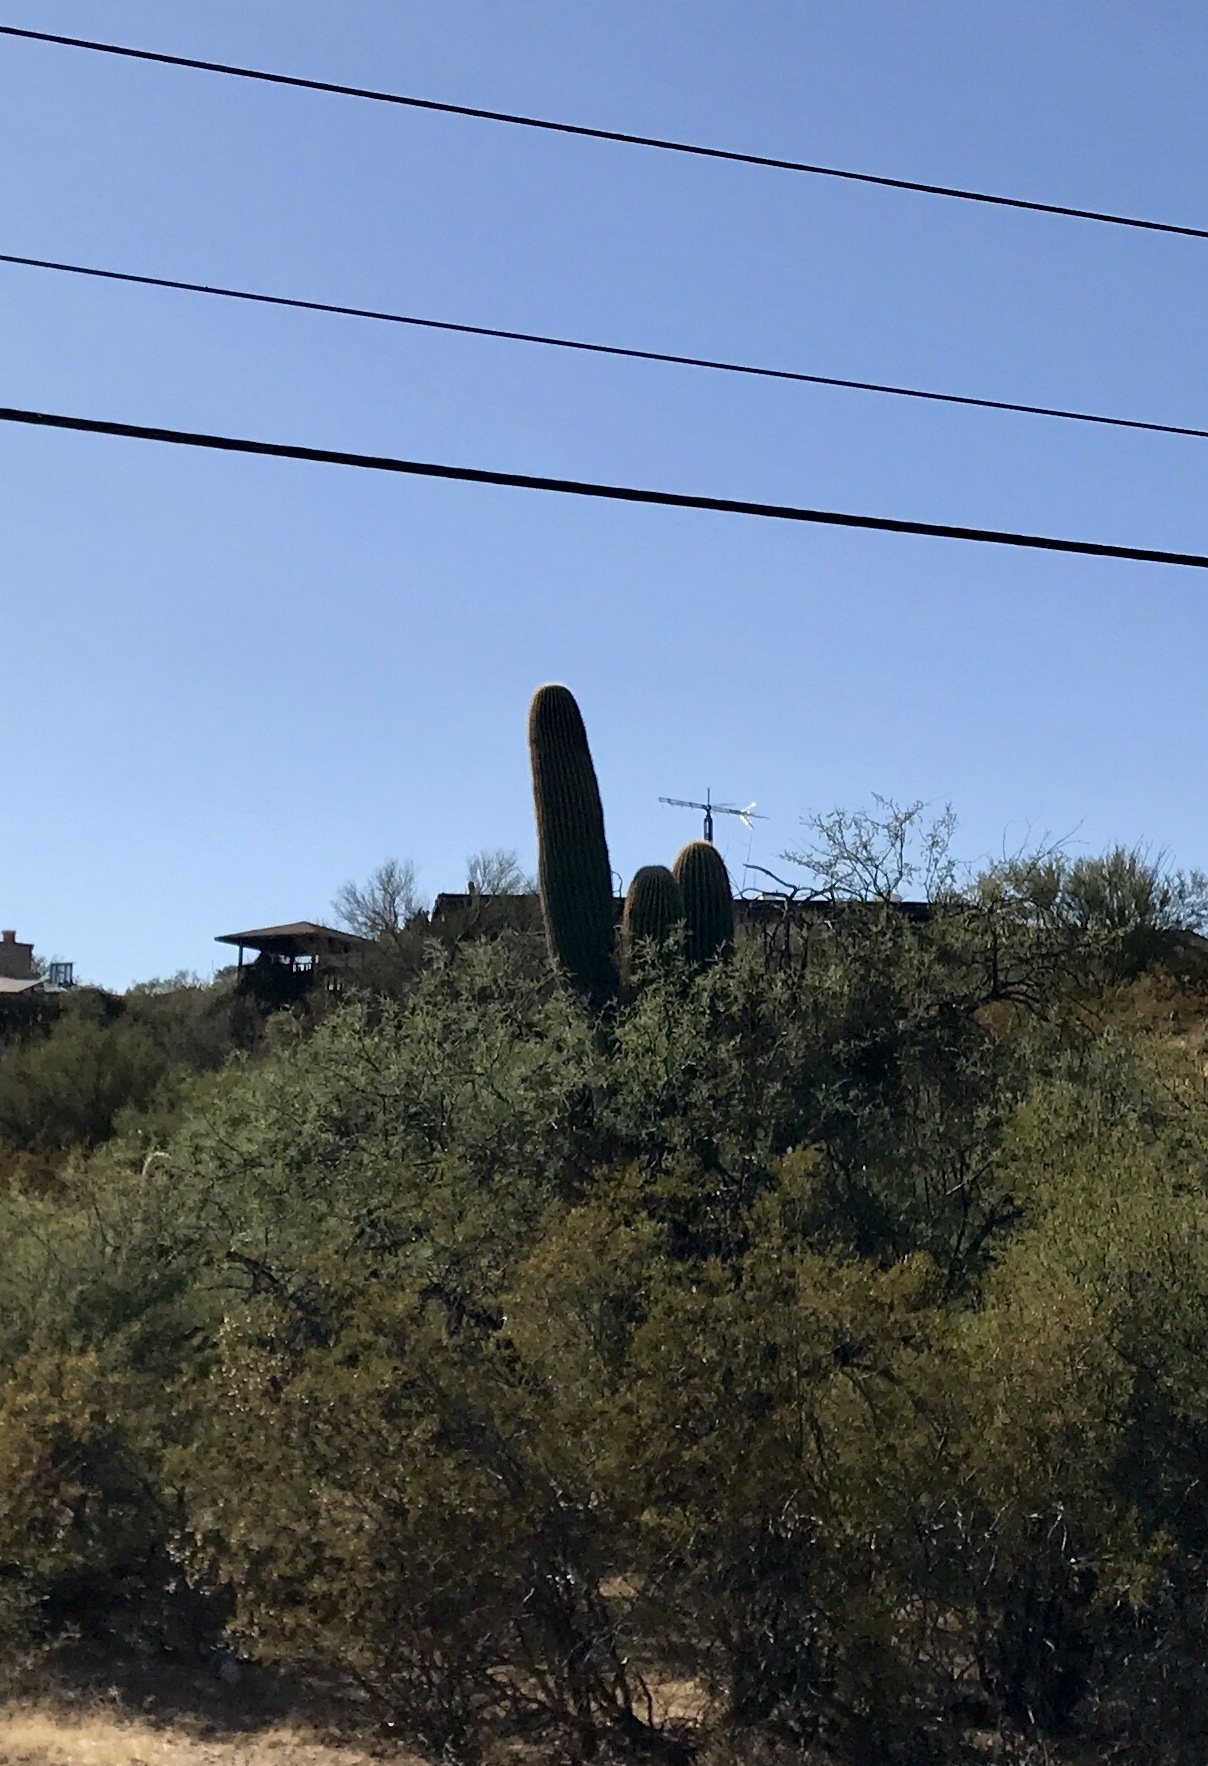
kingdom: Plantae
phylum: Tracheophyta
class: Magnoliopsida
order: Caryophyllales
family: Cactaceae
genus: Carnegiea
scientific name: Carnegiea gigantea
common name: Saguaro
